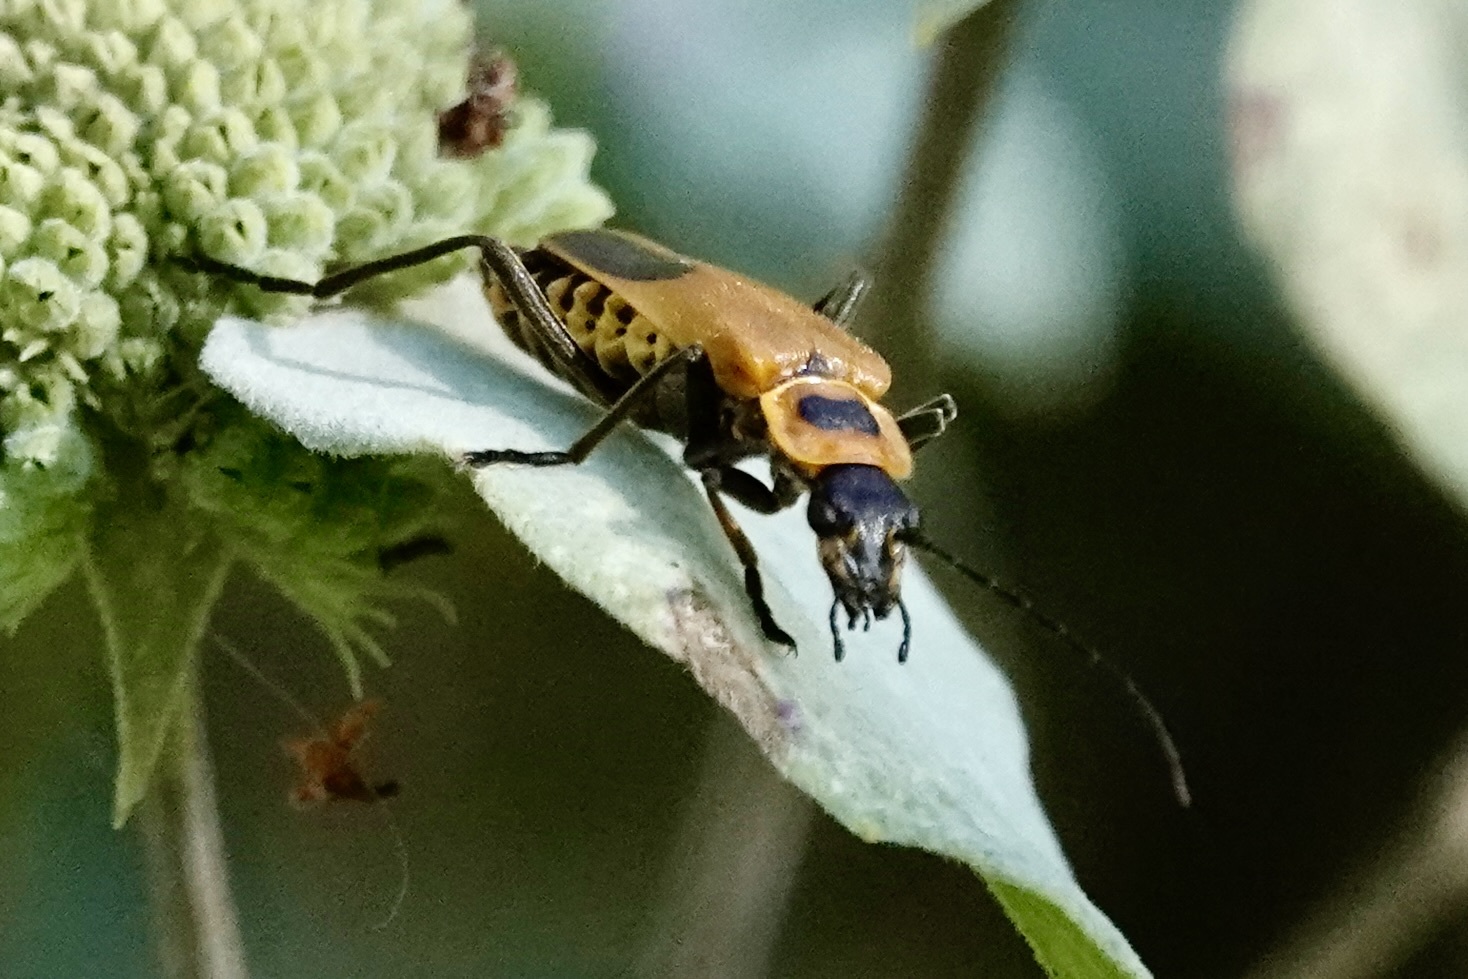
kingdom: Animalia
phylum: Arthropoda
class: Insecta
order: Coleoptera
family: Cantharidae
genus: Chauliognathus
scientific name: Chauliognathus pensylvanicus
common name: Goldenrod soldier beetle
